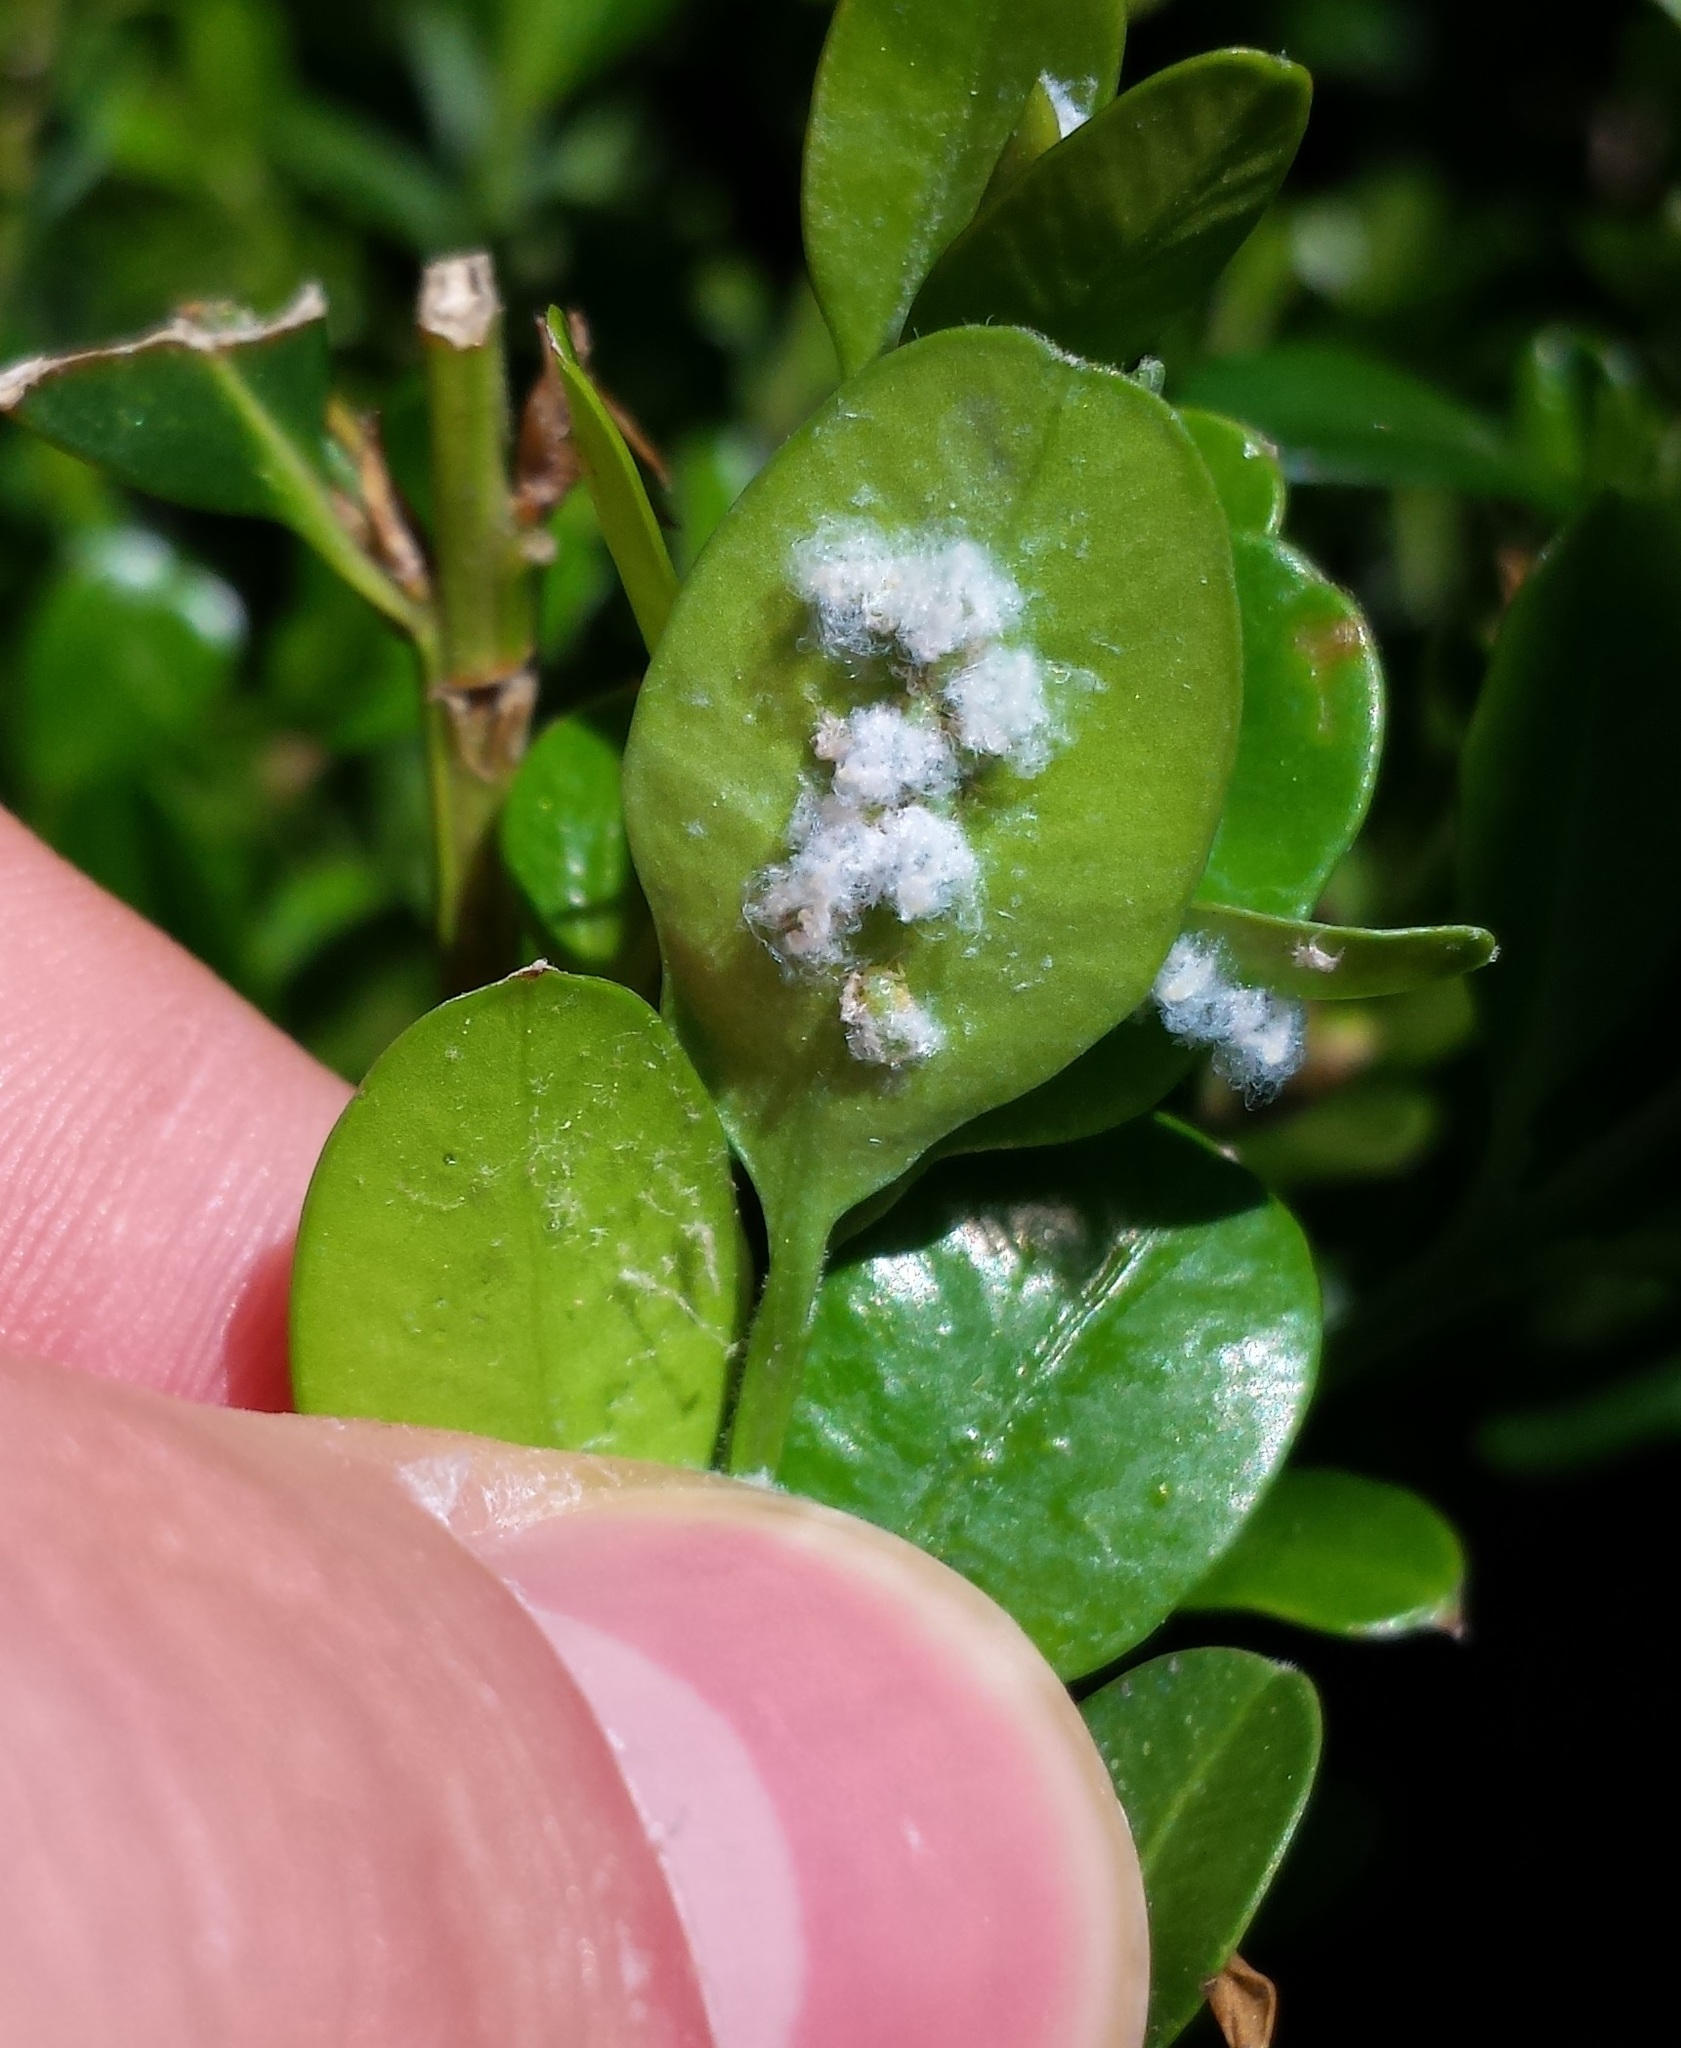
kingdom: Animalia
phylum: Arthropoda
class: Insecta
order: Hemiptera
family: Psyllidae
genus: Psylla
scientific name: Psylla buxi
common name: Boxwood psyllid
